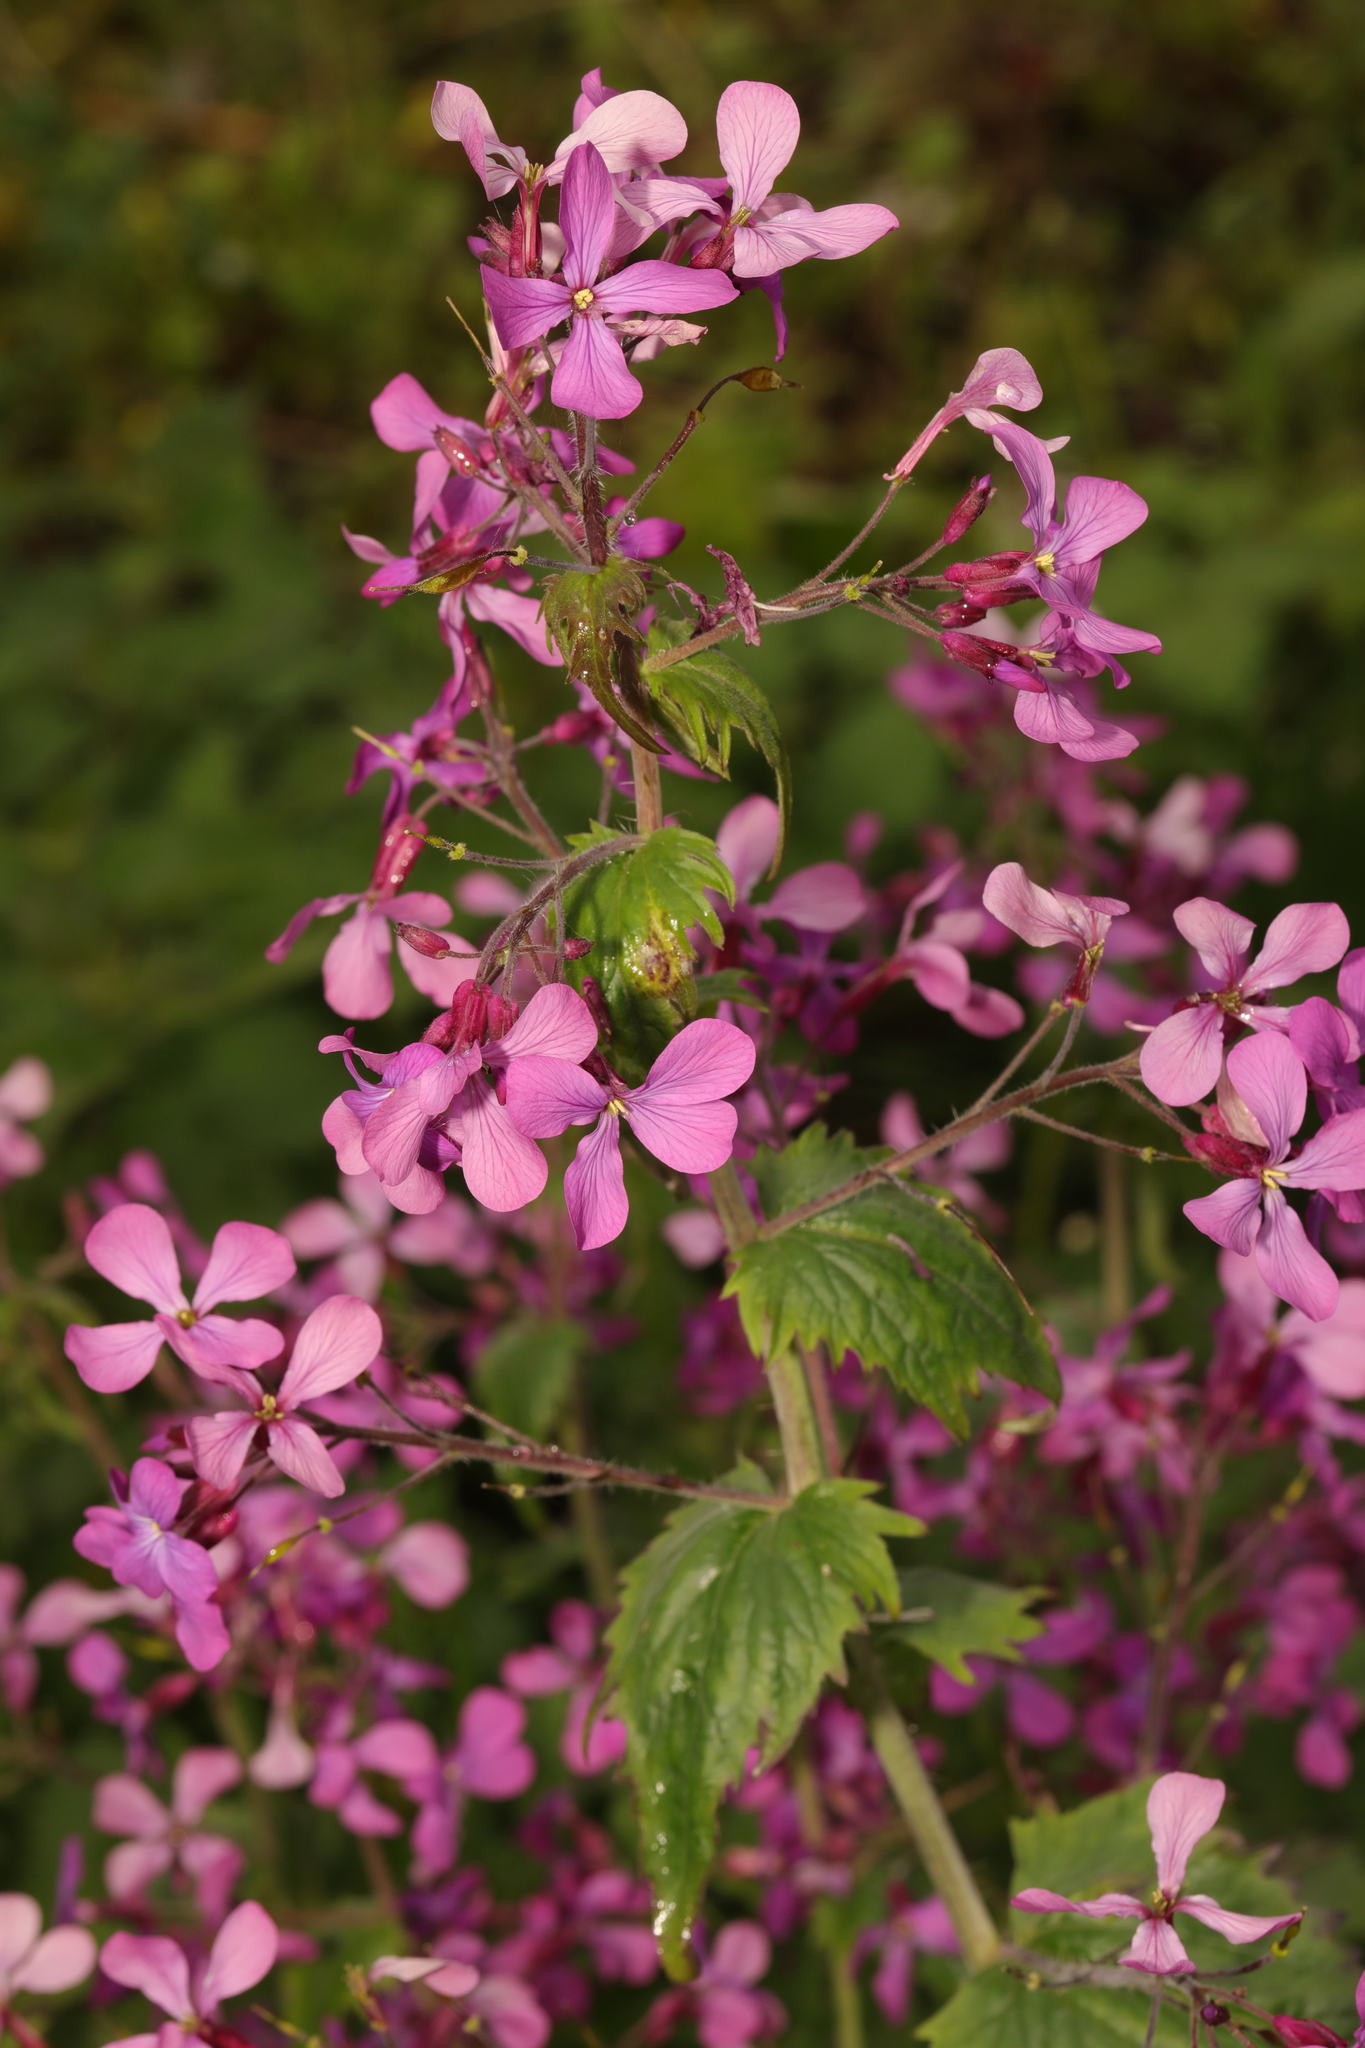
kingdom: Plantae
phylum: Tracheophyta
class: Magnoliopsida
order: Brassicales
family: Brassicaceae
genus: Lunaria
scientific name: Lunaria annua
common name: Honesty
